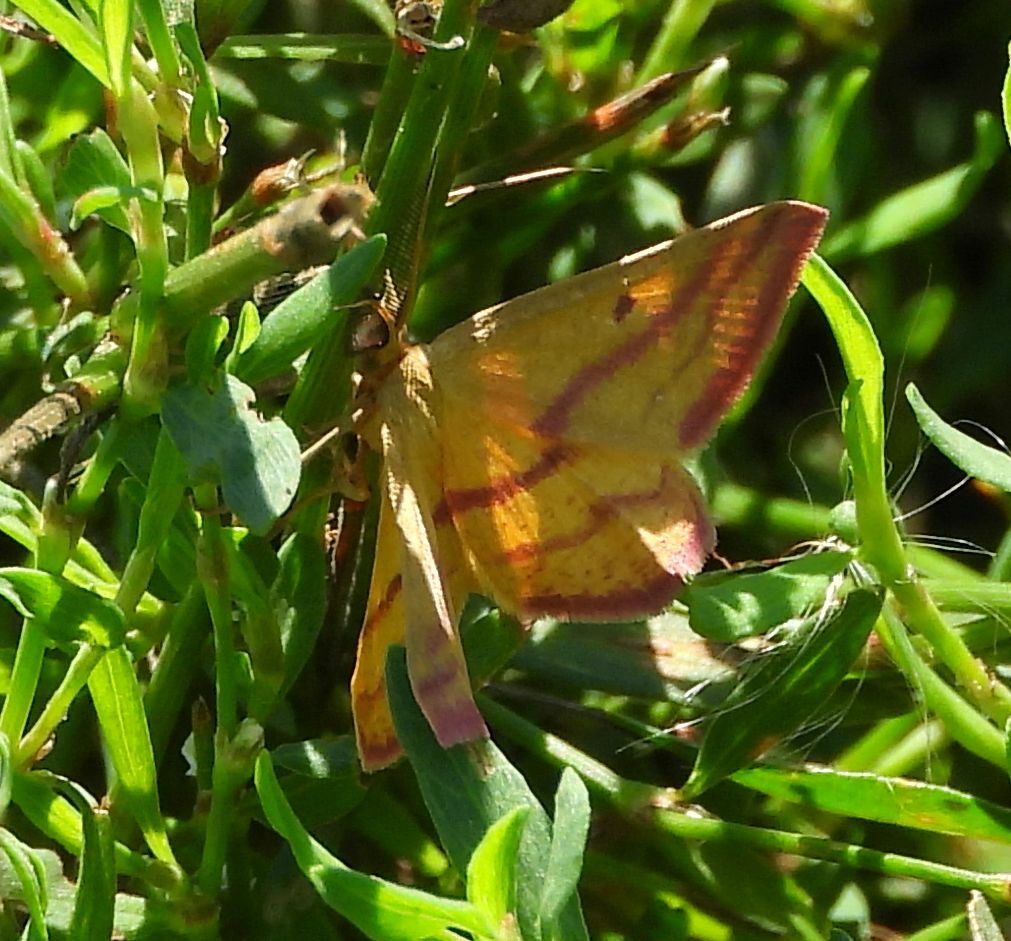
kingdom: Animalia
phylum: Arthropoda
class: Insecta
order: Lepidoptera
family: Geometridae
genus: Haematopis
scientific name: Haematopis grataria
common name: Chickweed geometer
